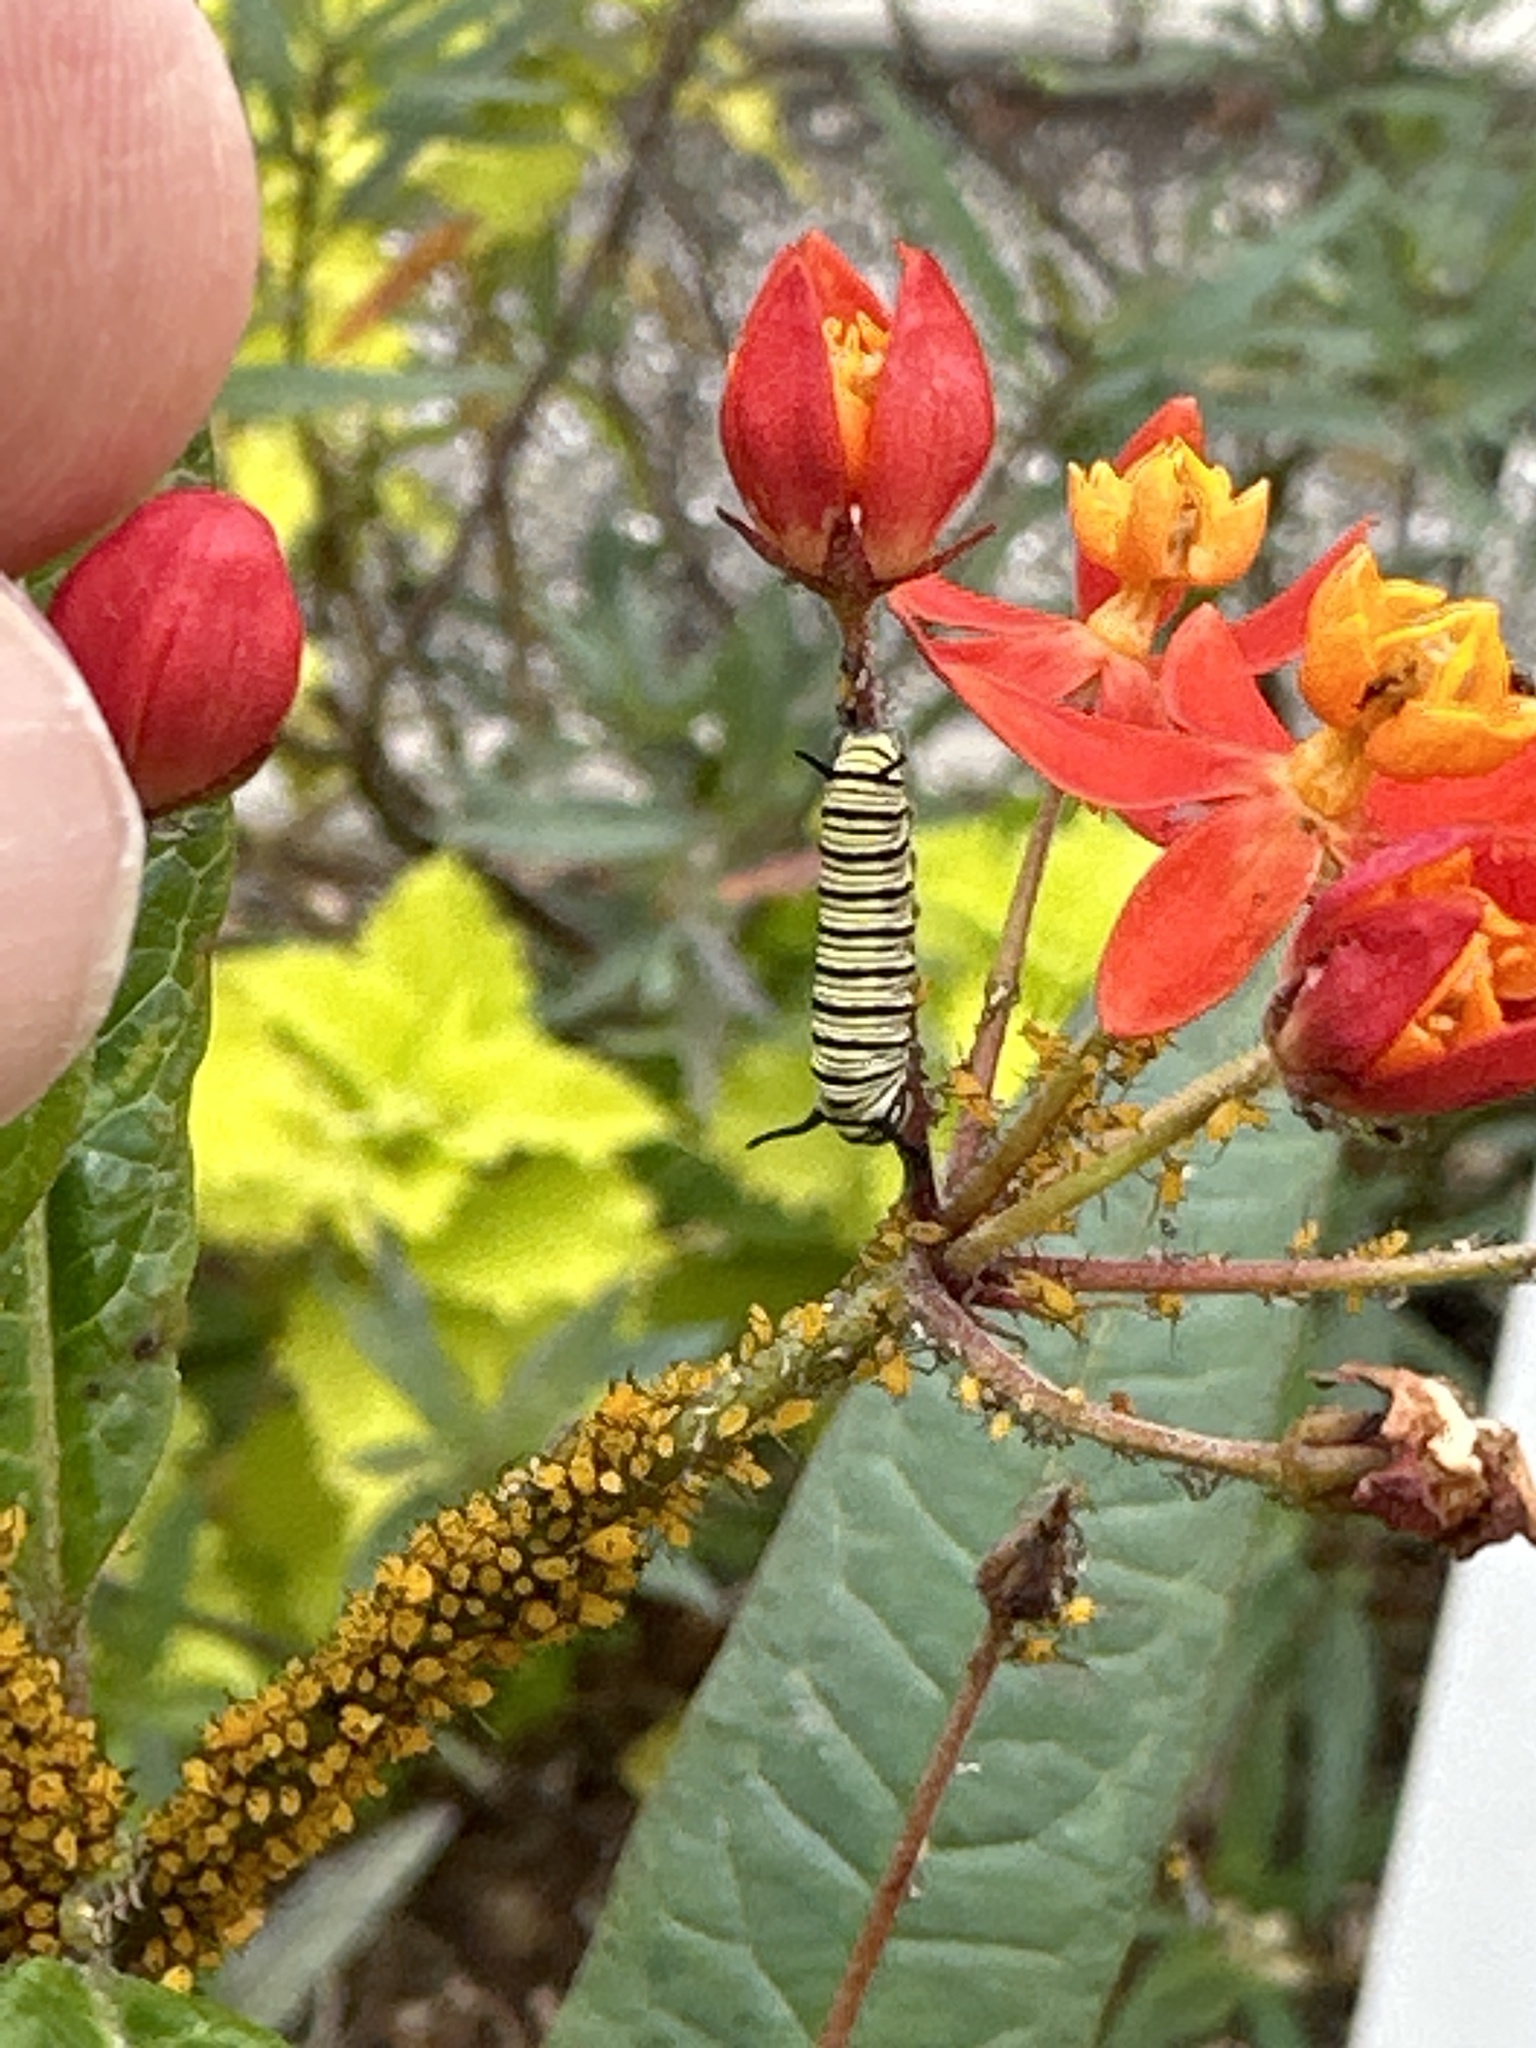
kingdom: Animalia
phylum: Arthropoda
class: Insecta
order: Lepidoptera
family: Nymphalidae
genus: Danaus
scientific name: Danaus plexippus
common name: Monarch
